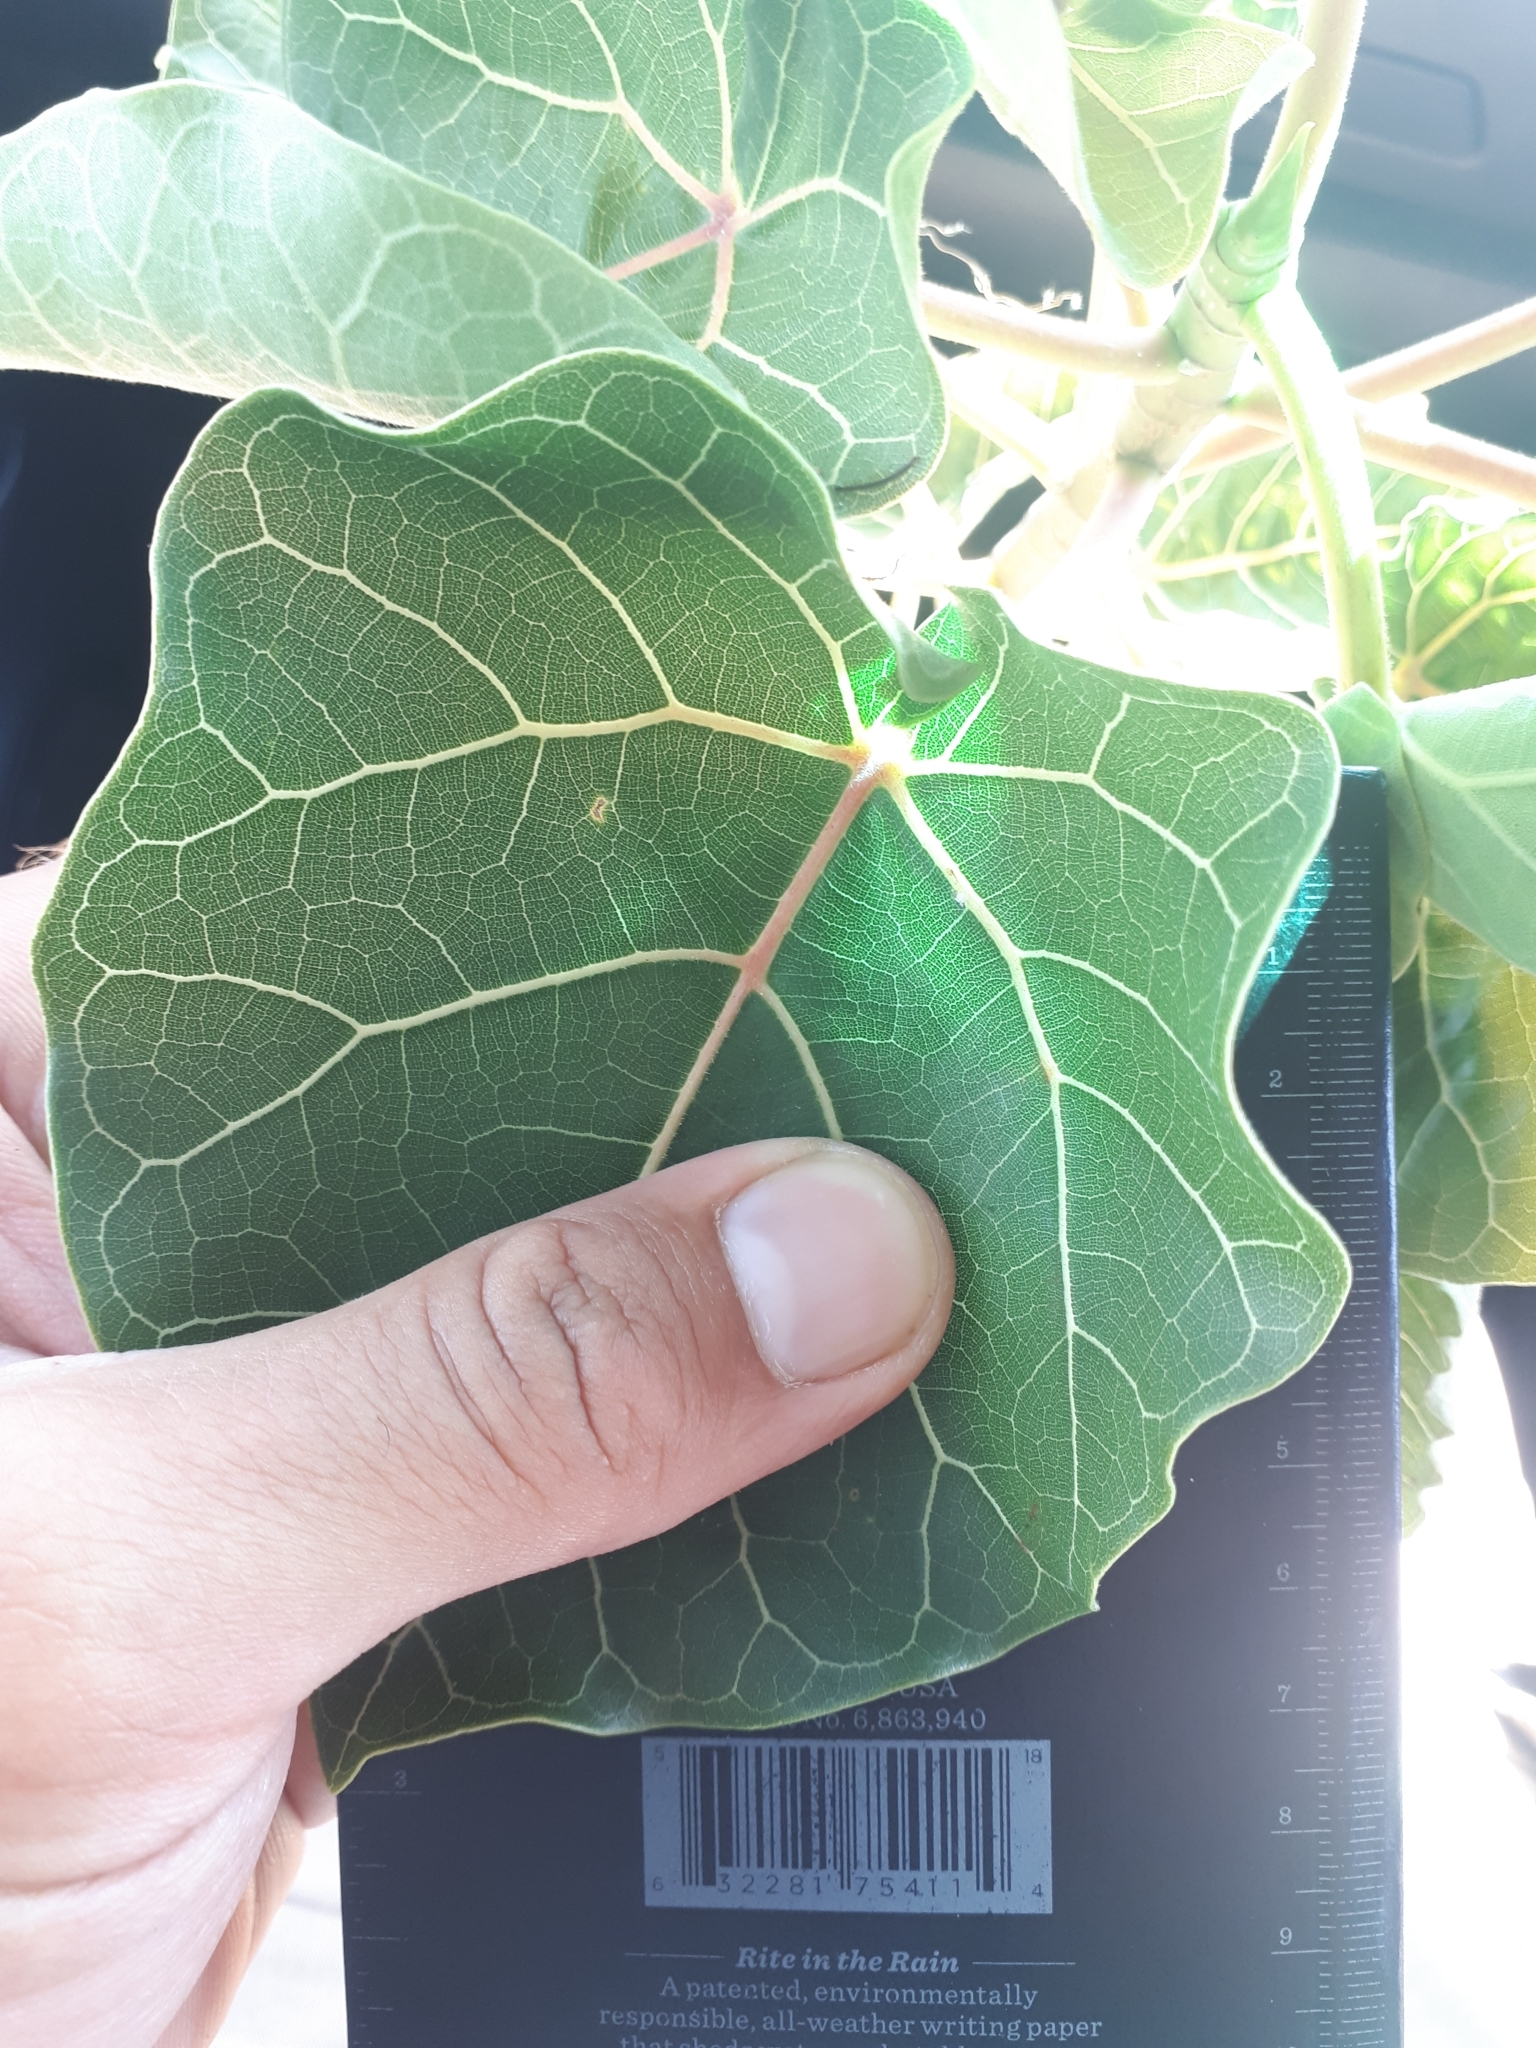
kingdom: Plantae
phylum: Tracheophyta
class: Magnoliopsida
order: Rosales
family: Moraceae
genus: Ficus
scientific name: Ficus abutilifolia
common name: Large-leaved rock fig
